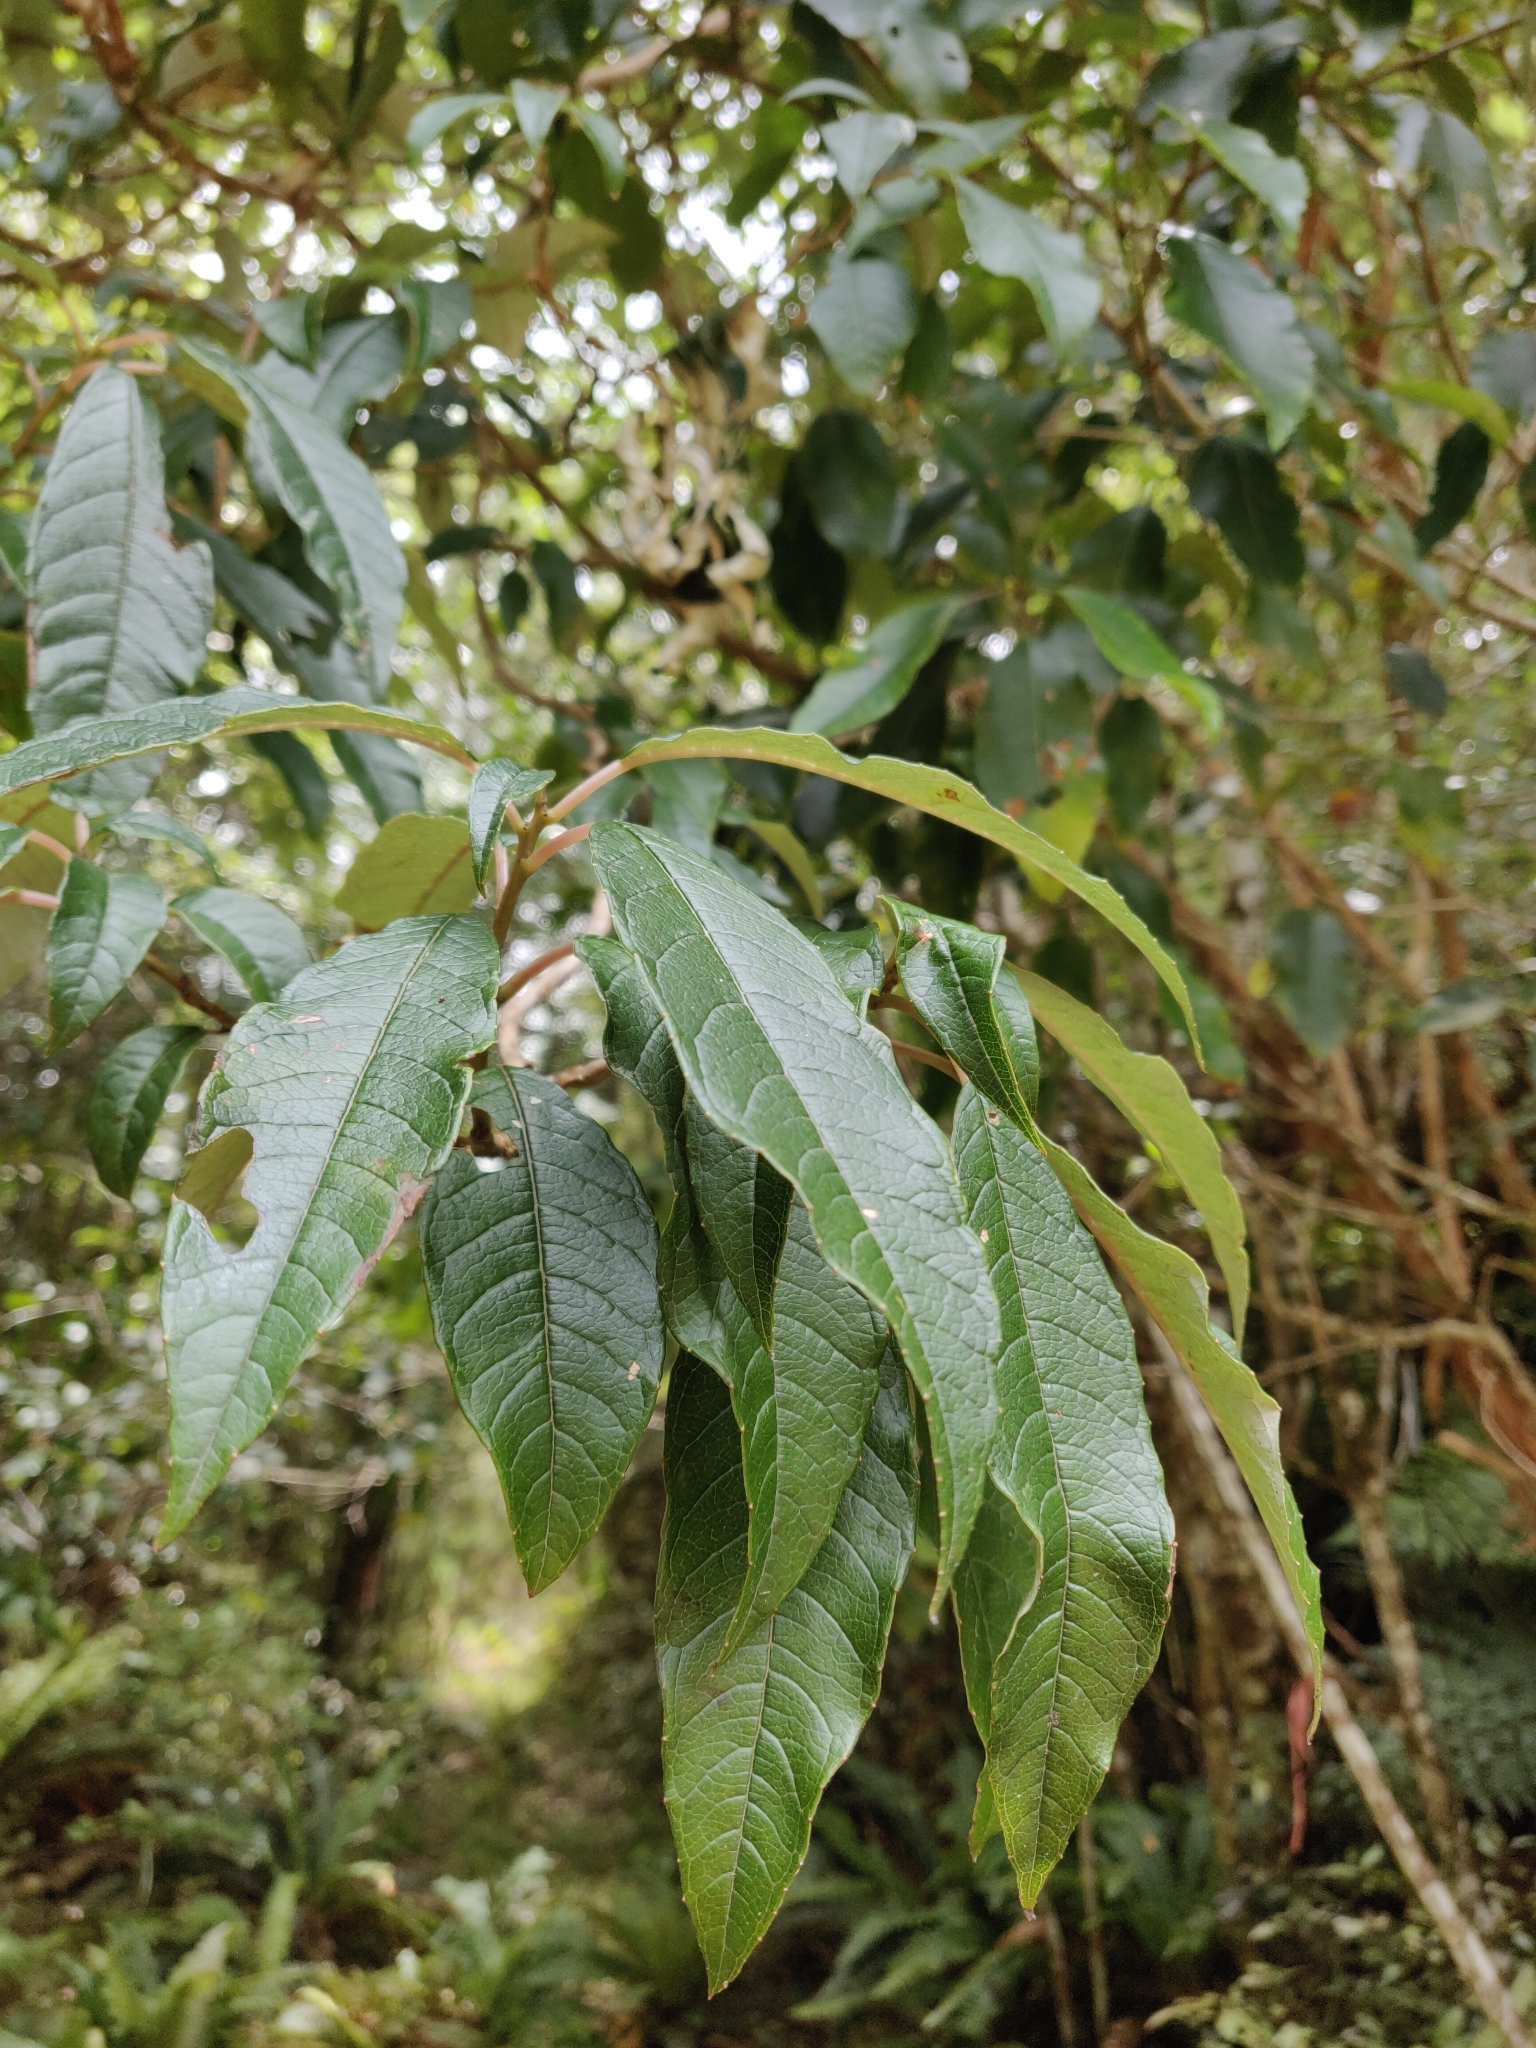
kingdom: Plantae
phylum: Tracheophyta
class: Magnoliopsida
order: Myrtales
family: Onagraceae
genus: Fuchsia
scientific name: Fuchsia excorticata
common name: Tree fuchsia
